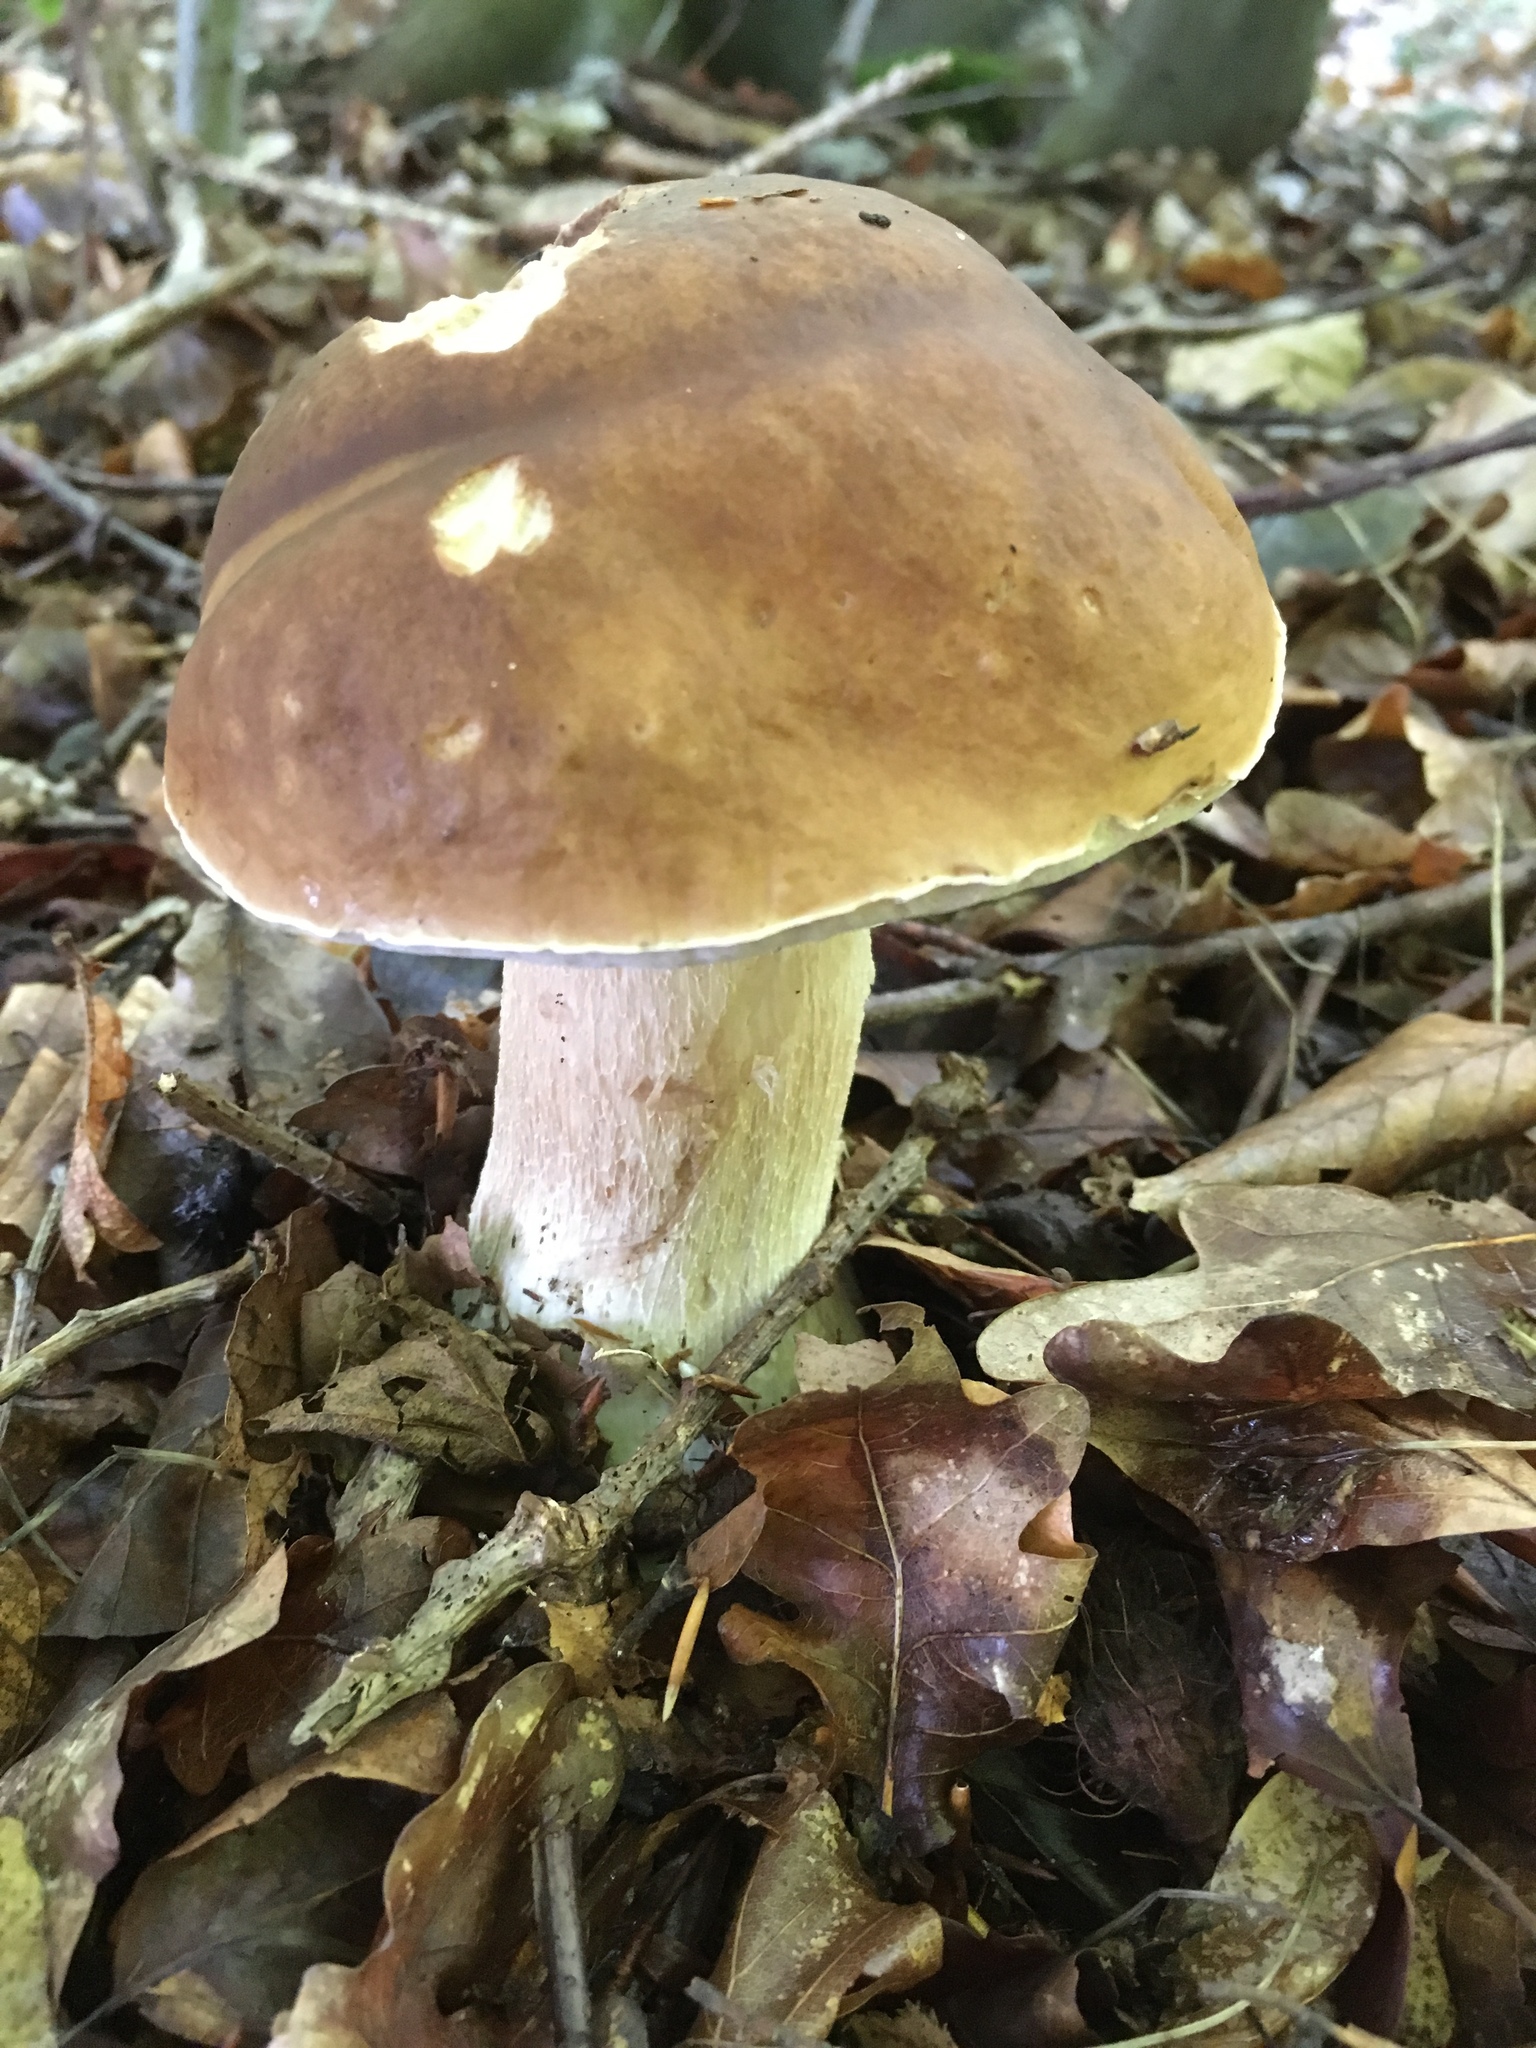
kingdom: Fungi
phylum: Basidiomycota
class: Agaricomycetes
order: Boletales
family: Boletaceae
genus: Boletus
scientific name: Boletus edulis
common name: Cep
